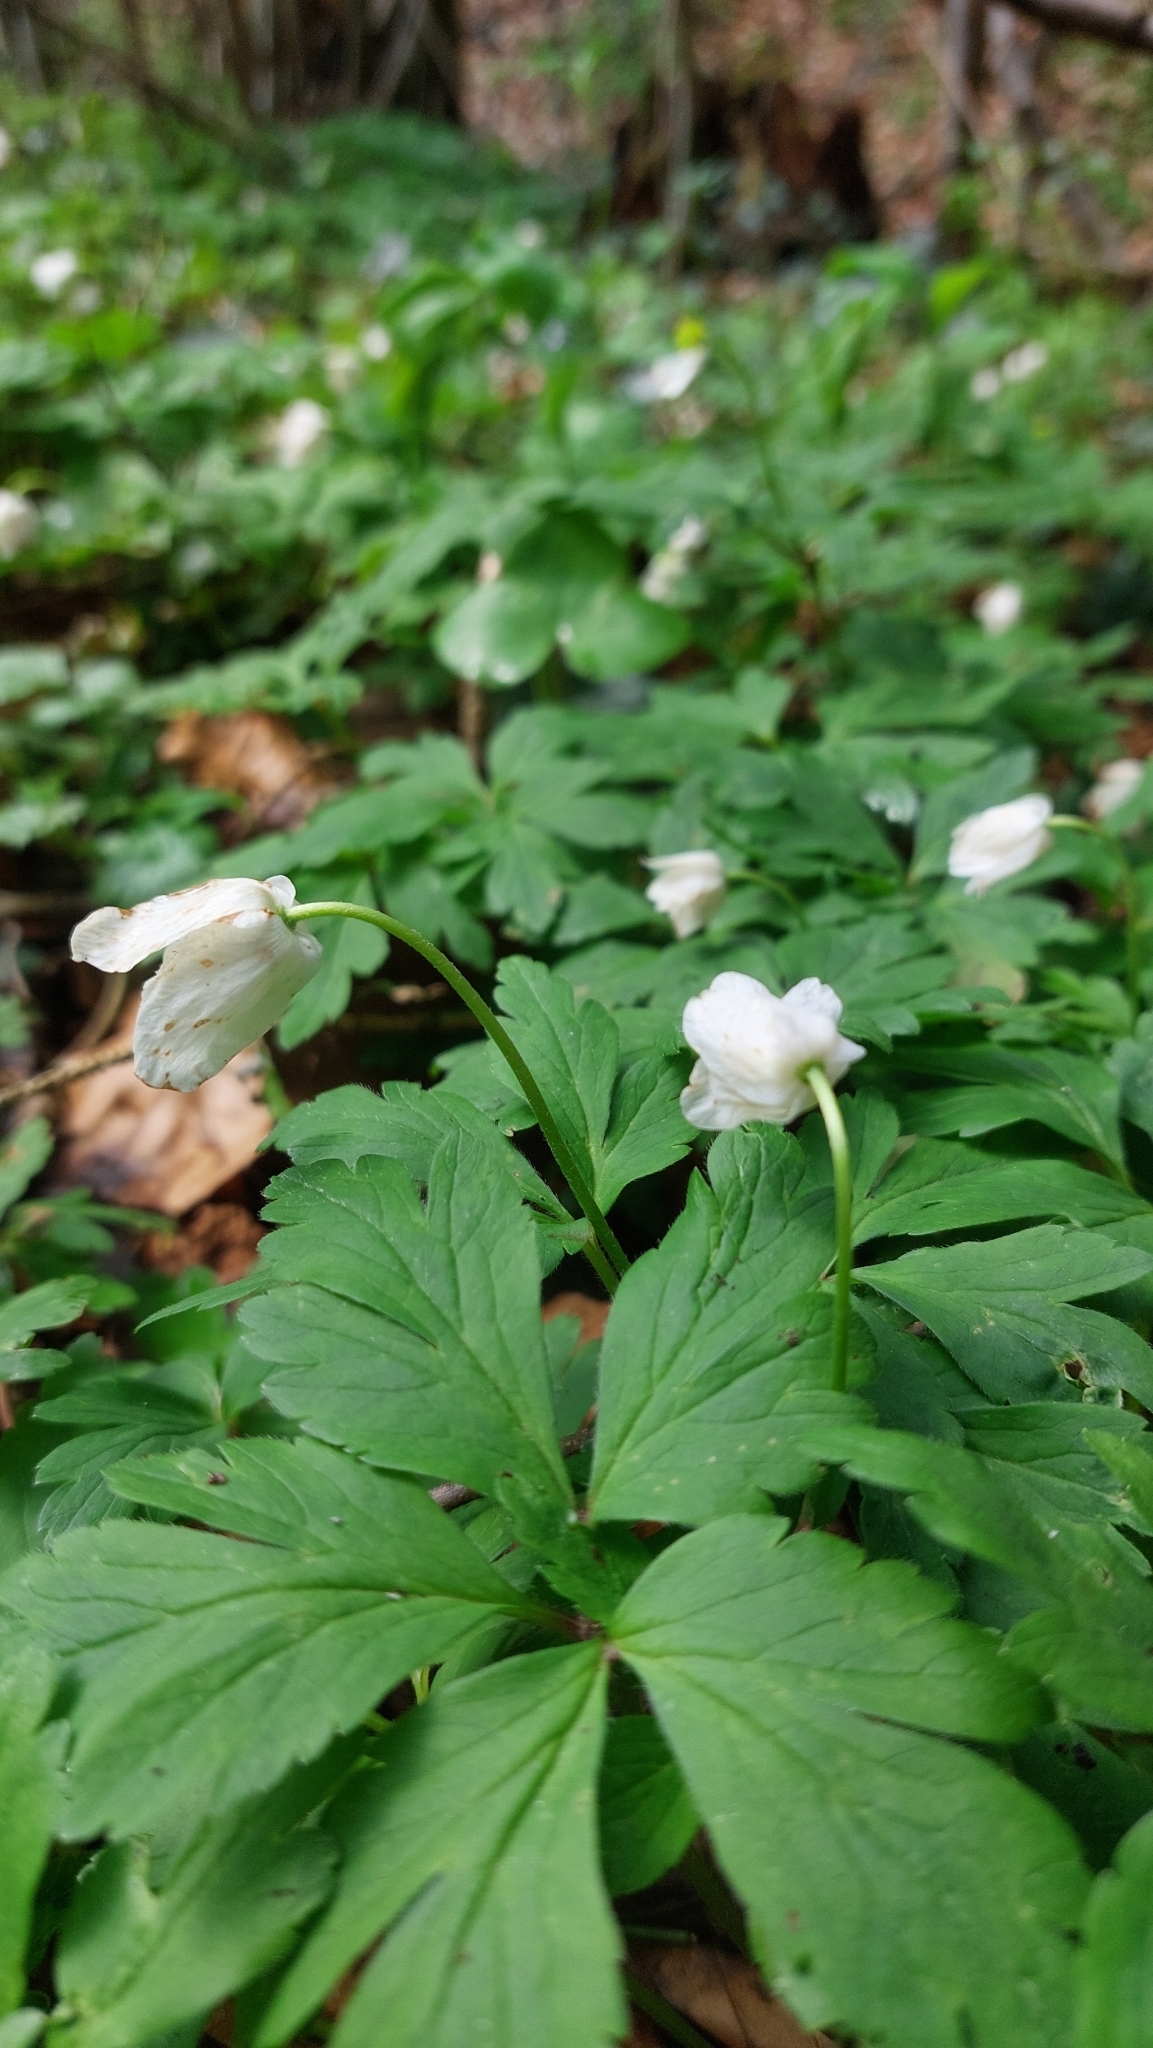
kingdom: Plantae
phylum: Tracheophyta
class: Magnoliopsida
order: Ranunculales
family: Ranunculaceae
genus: Anemone
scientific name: Anemone nemorosa
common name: Wood anemone
